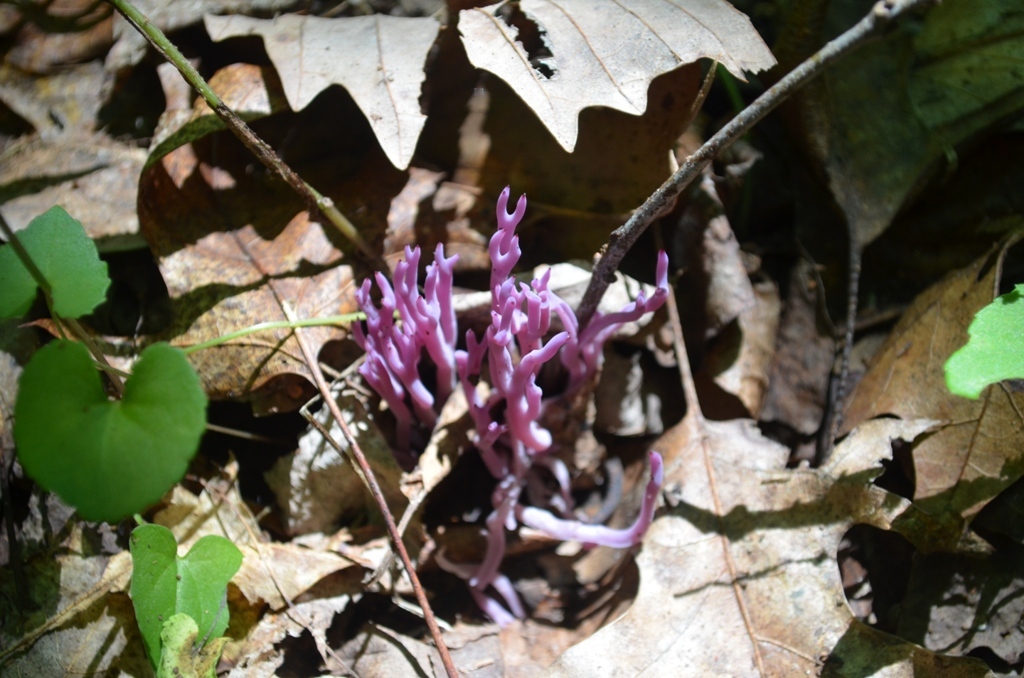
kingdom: Fungi
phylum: Basidiomycota
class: Agaricomycetes
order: Agaricales
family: Clavariaceae
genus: Clavaria
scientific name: Clavaria zollingeri
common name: Violet coral
